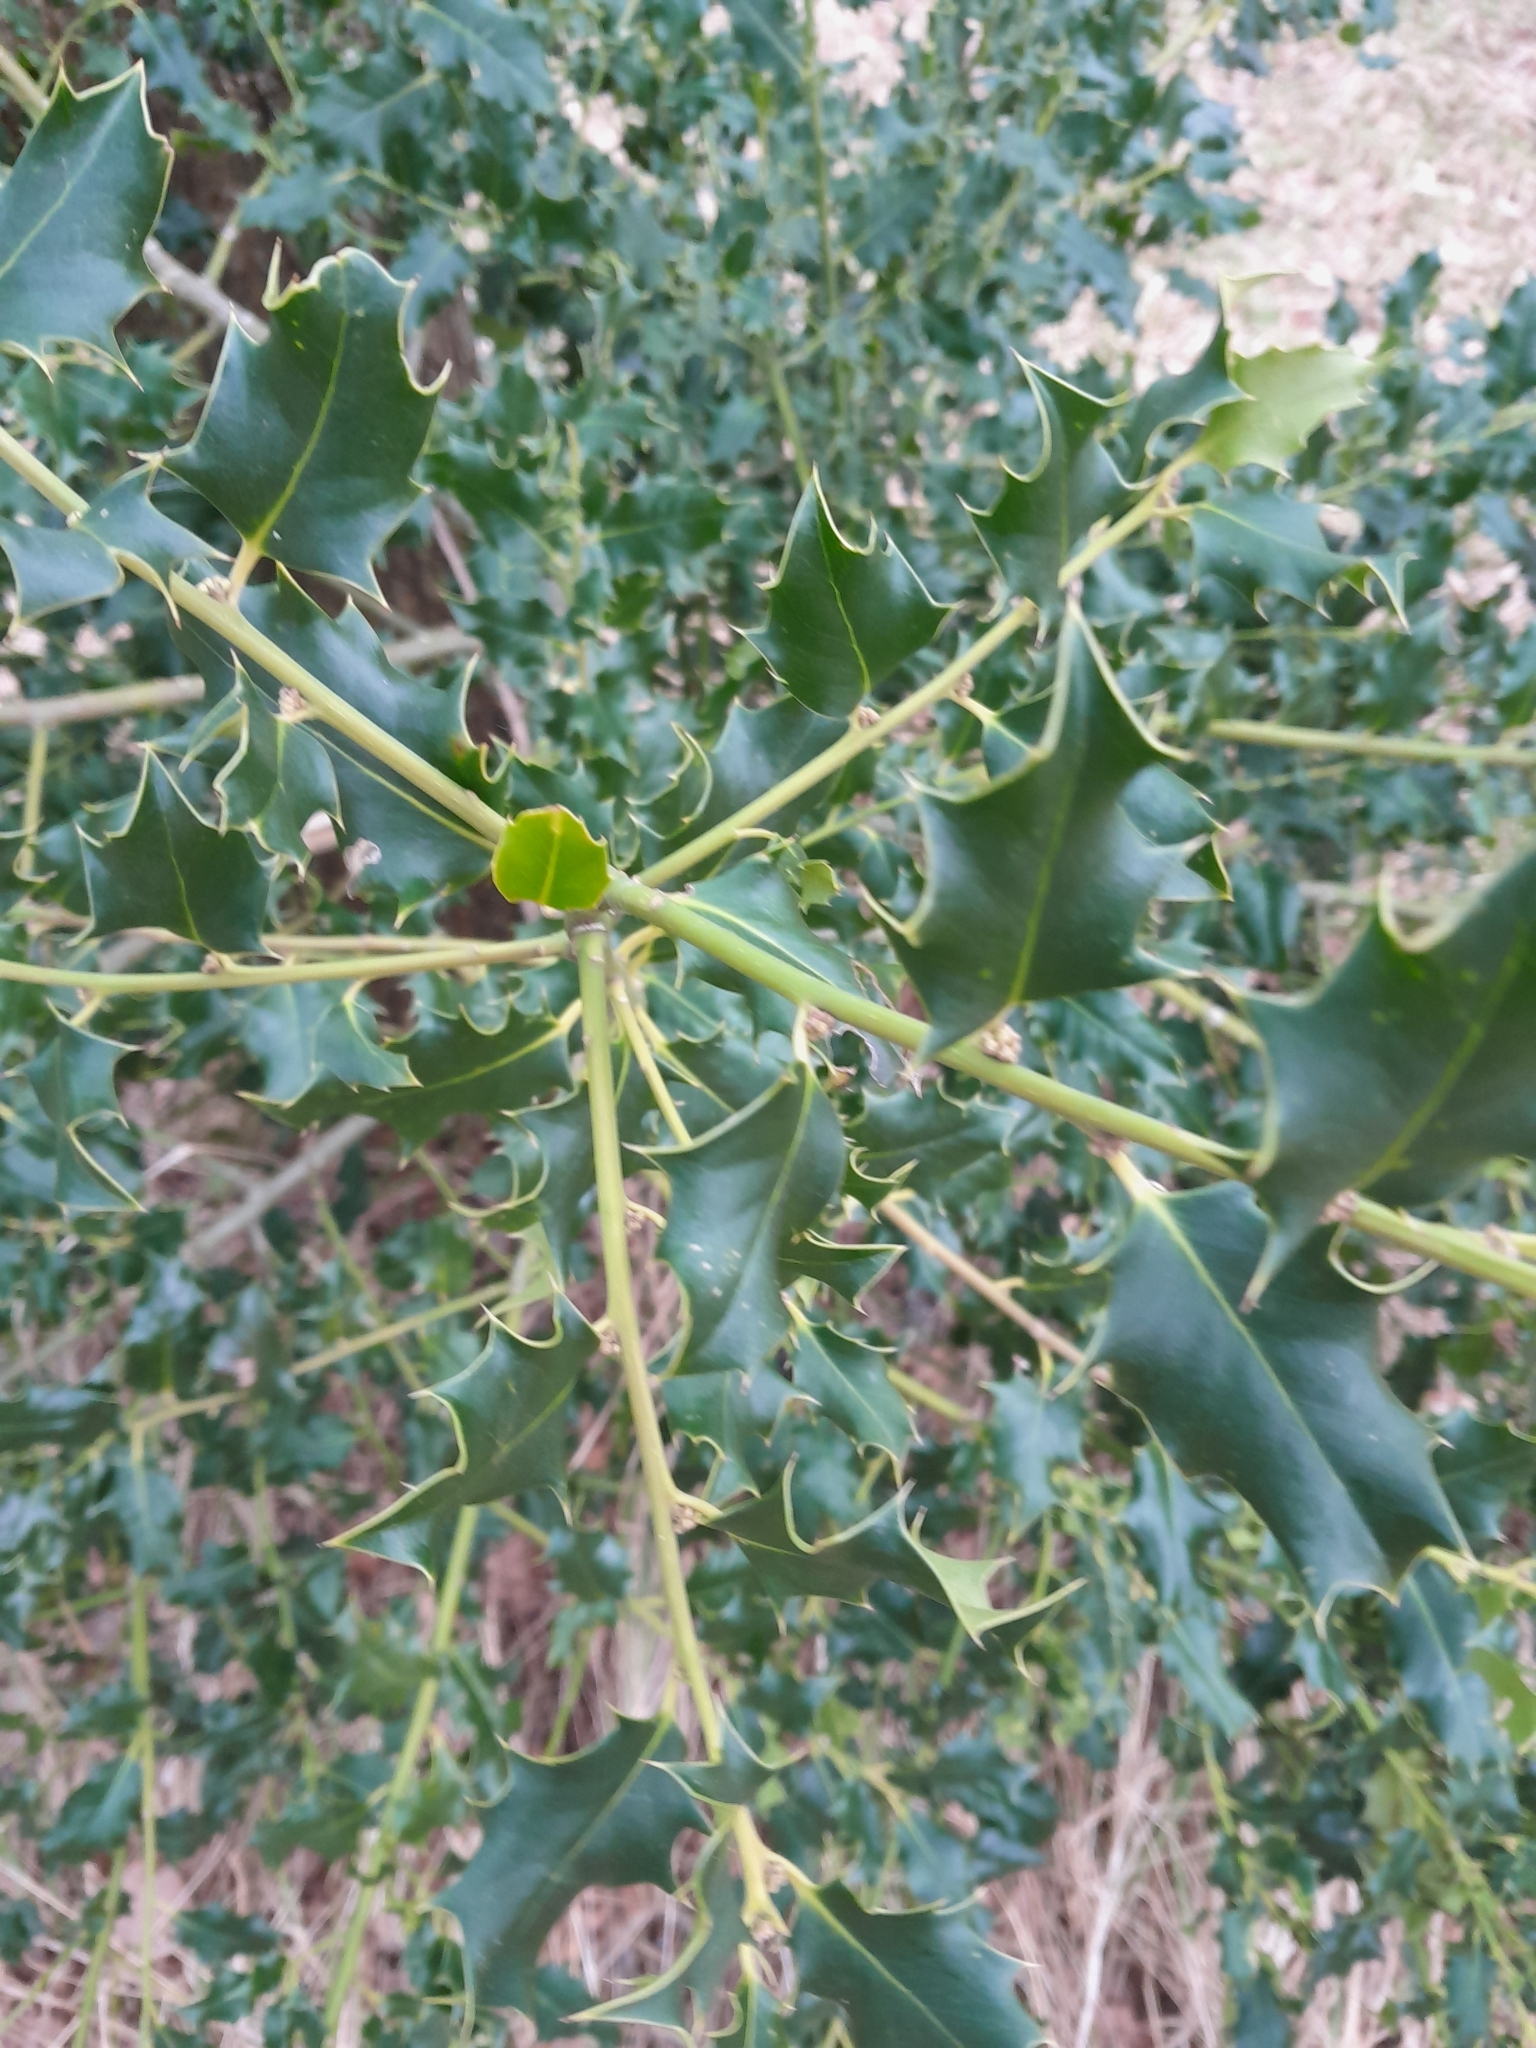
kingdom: Plantae
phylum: Tracheophyta
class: Magnoliopsida
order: Aquifoliales
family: Aquifoliaceae
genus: Ilex
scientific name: Ilex aquifolium
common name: English holly
